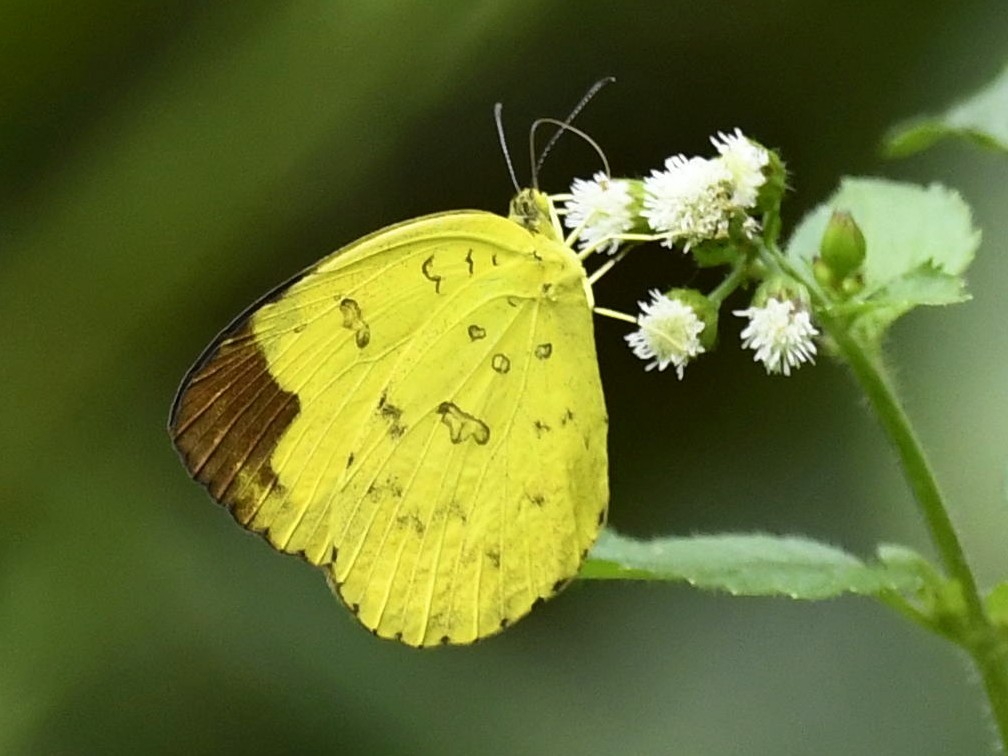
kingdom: Animalia
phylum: Arthropoda
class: Insecta
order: Lepidoptera
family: Pieridae
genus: Eurema
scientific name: Eurema blanda
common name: Three-spot grass yellow
